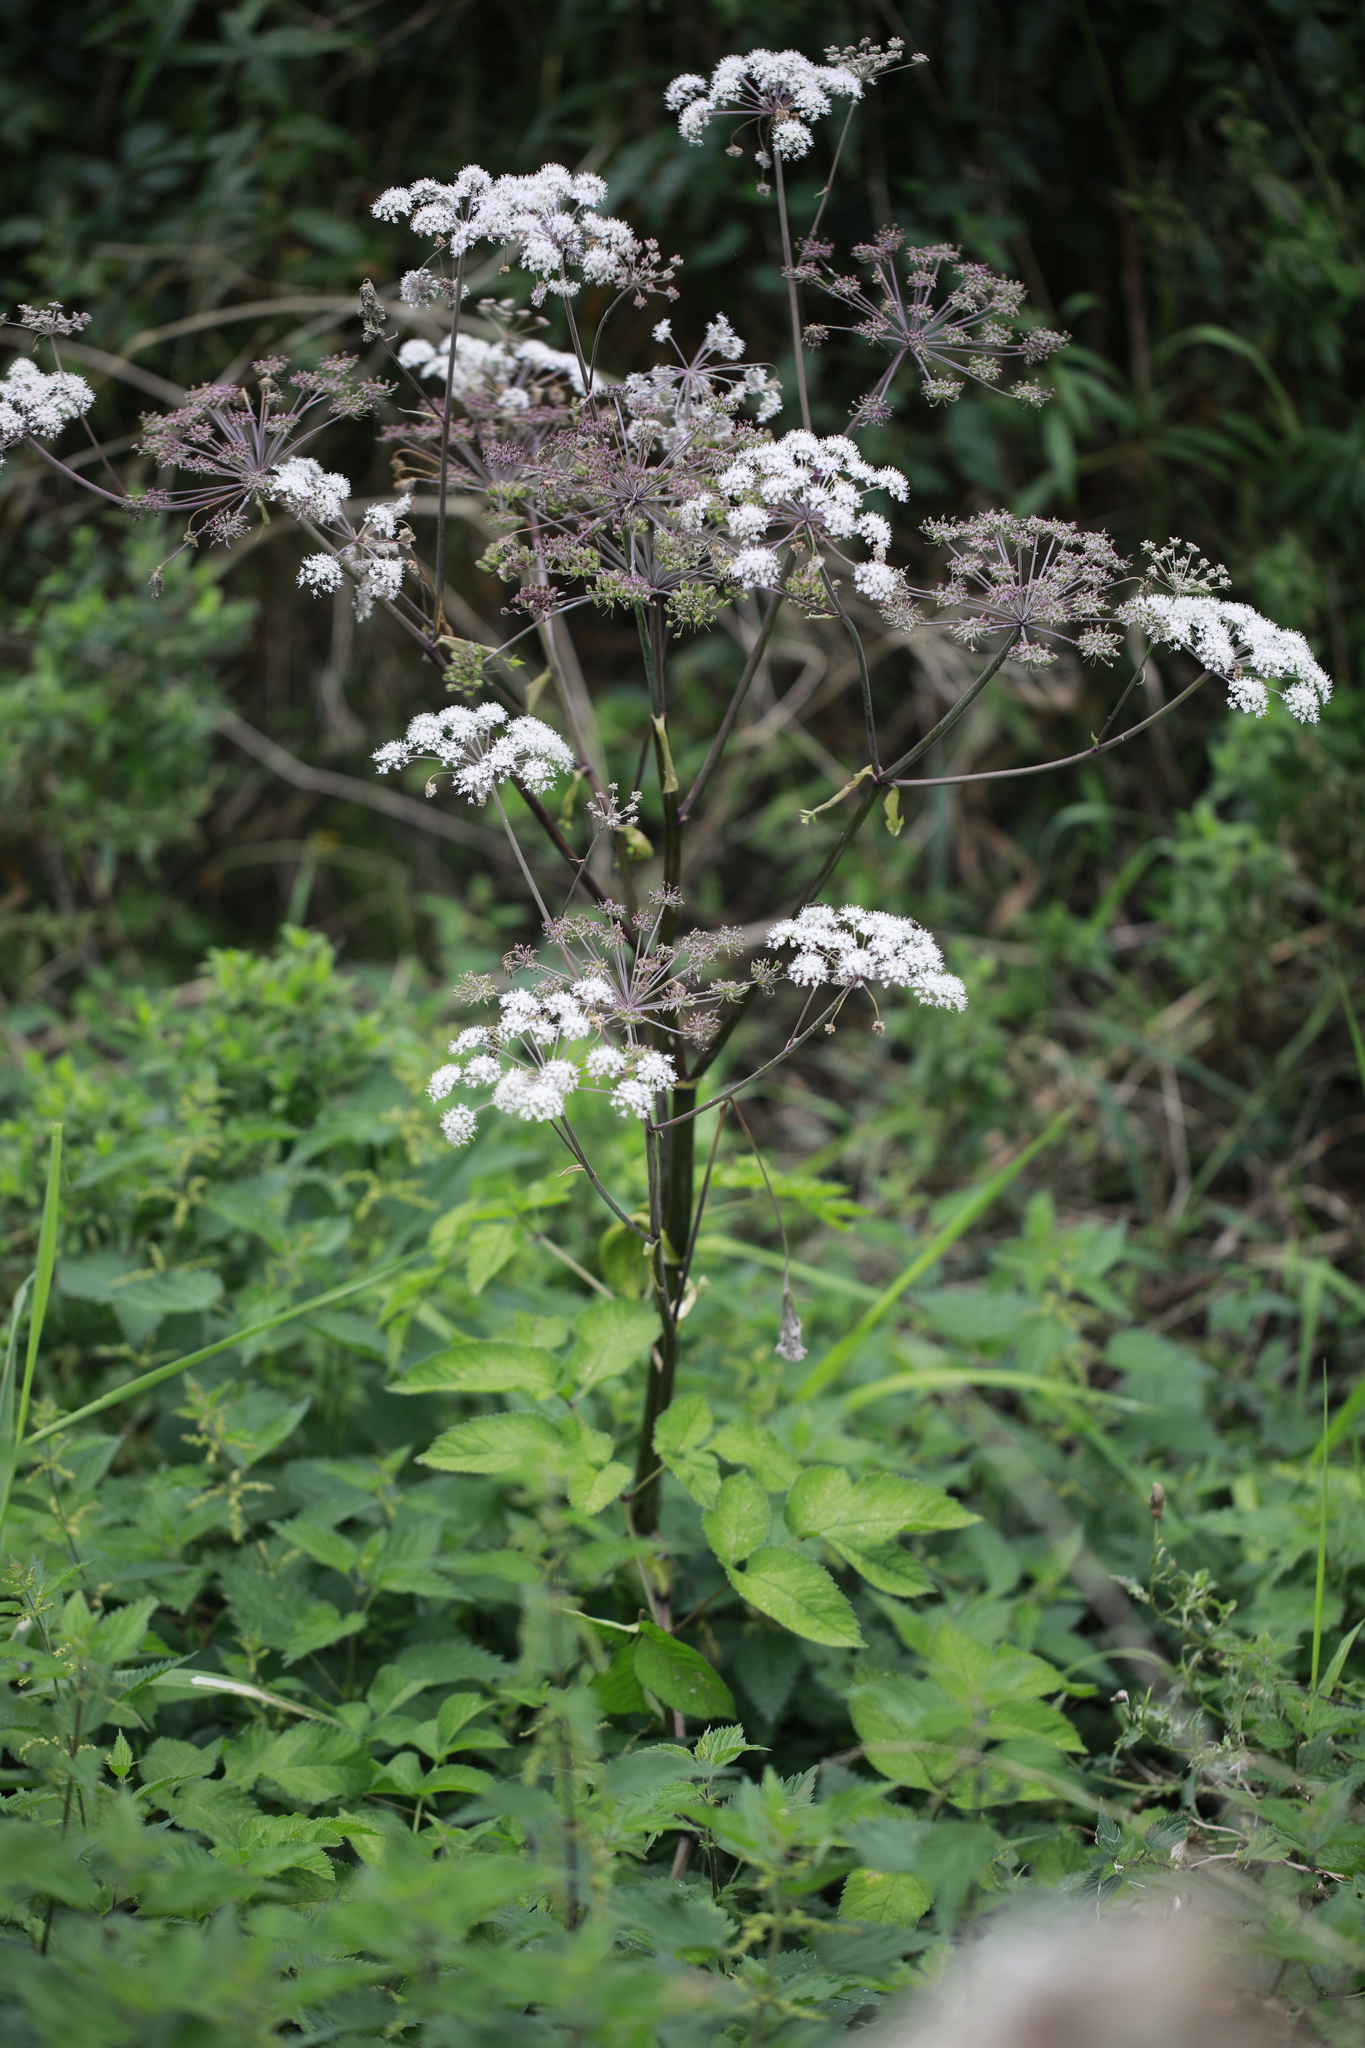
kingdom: Plantae
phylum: Tracheophyta
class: Magnoliopsida
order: Apiales
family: Apiaceae
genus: Angelica
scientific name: Angelica sylvestris
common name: Wild angelica
